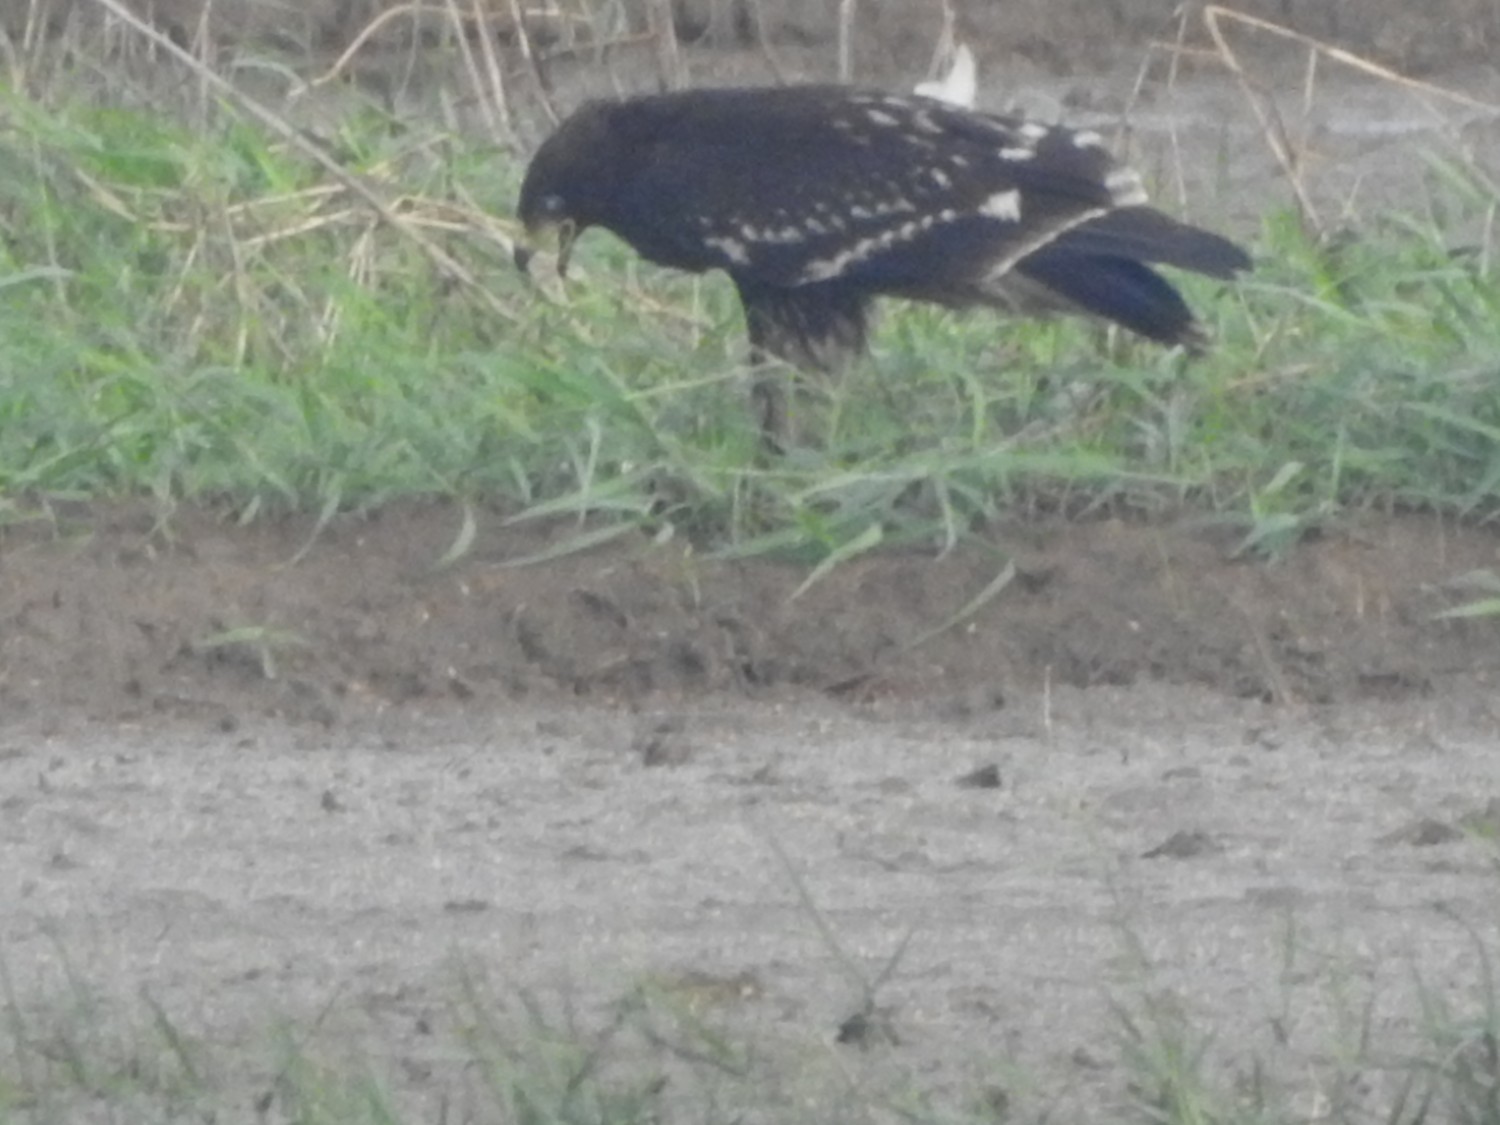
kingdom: Animalia
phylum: Chordata
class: Aves
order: Accipitriformes
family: Accipitridae
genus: Aquila
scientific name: Aquila clanga
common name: Greater spotted eagle
